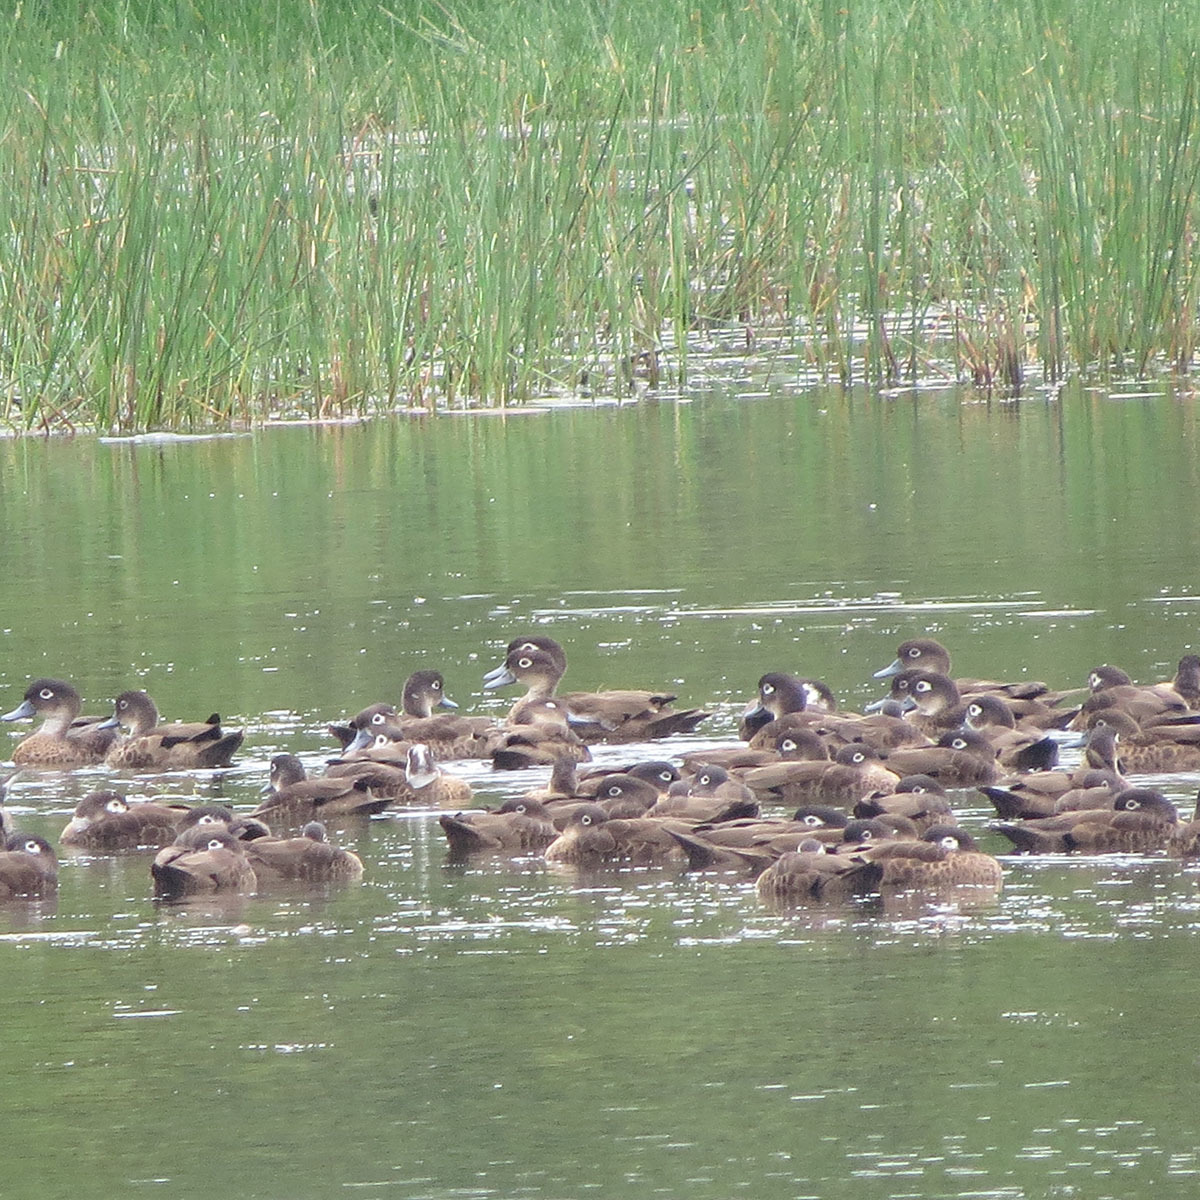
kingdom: Animalia
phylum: Chordata
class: Aves
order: Anseriformes
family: Anatidae
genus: Anas
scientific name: Anas albogularis
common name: Andaman teal
